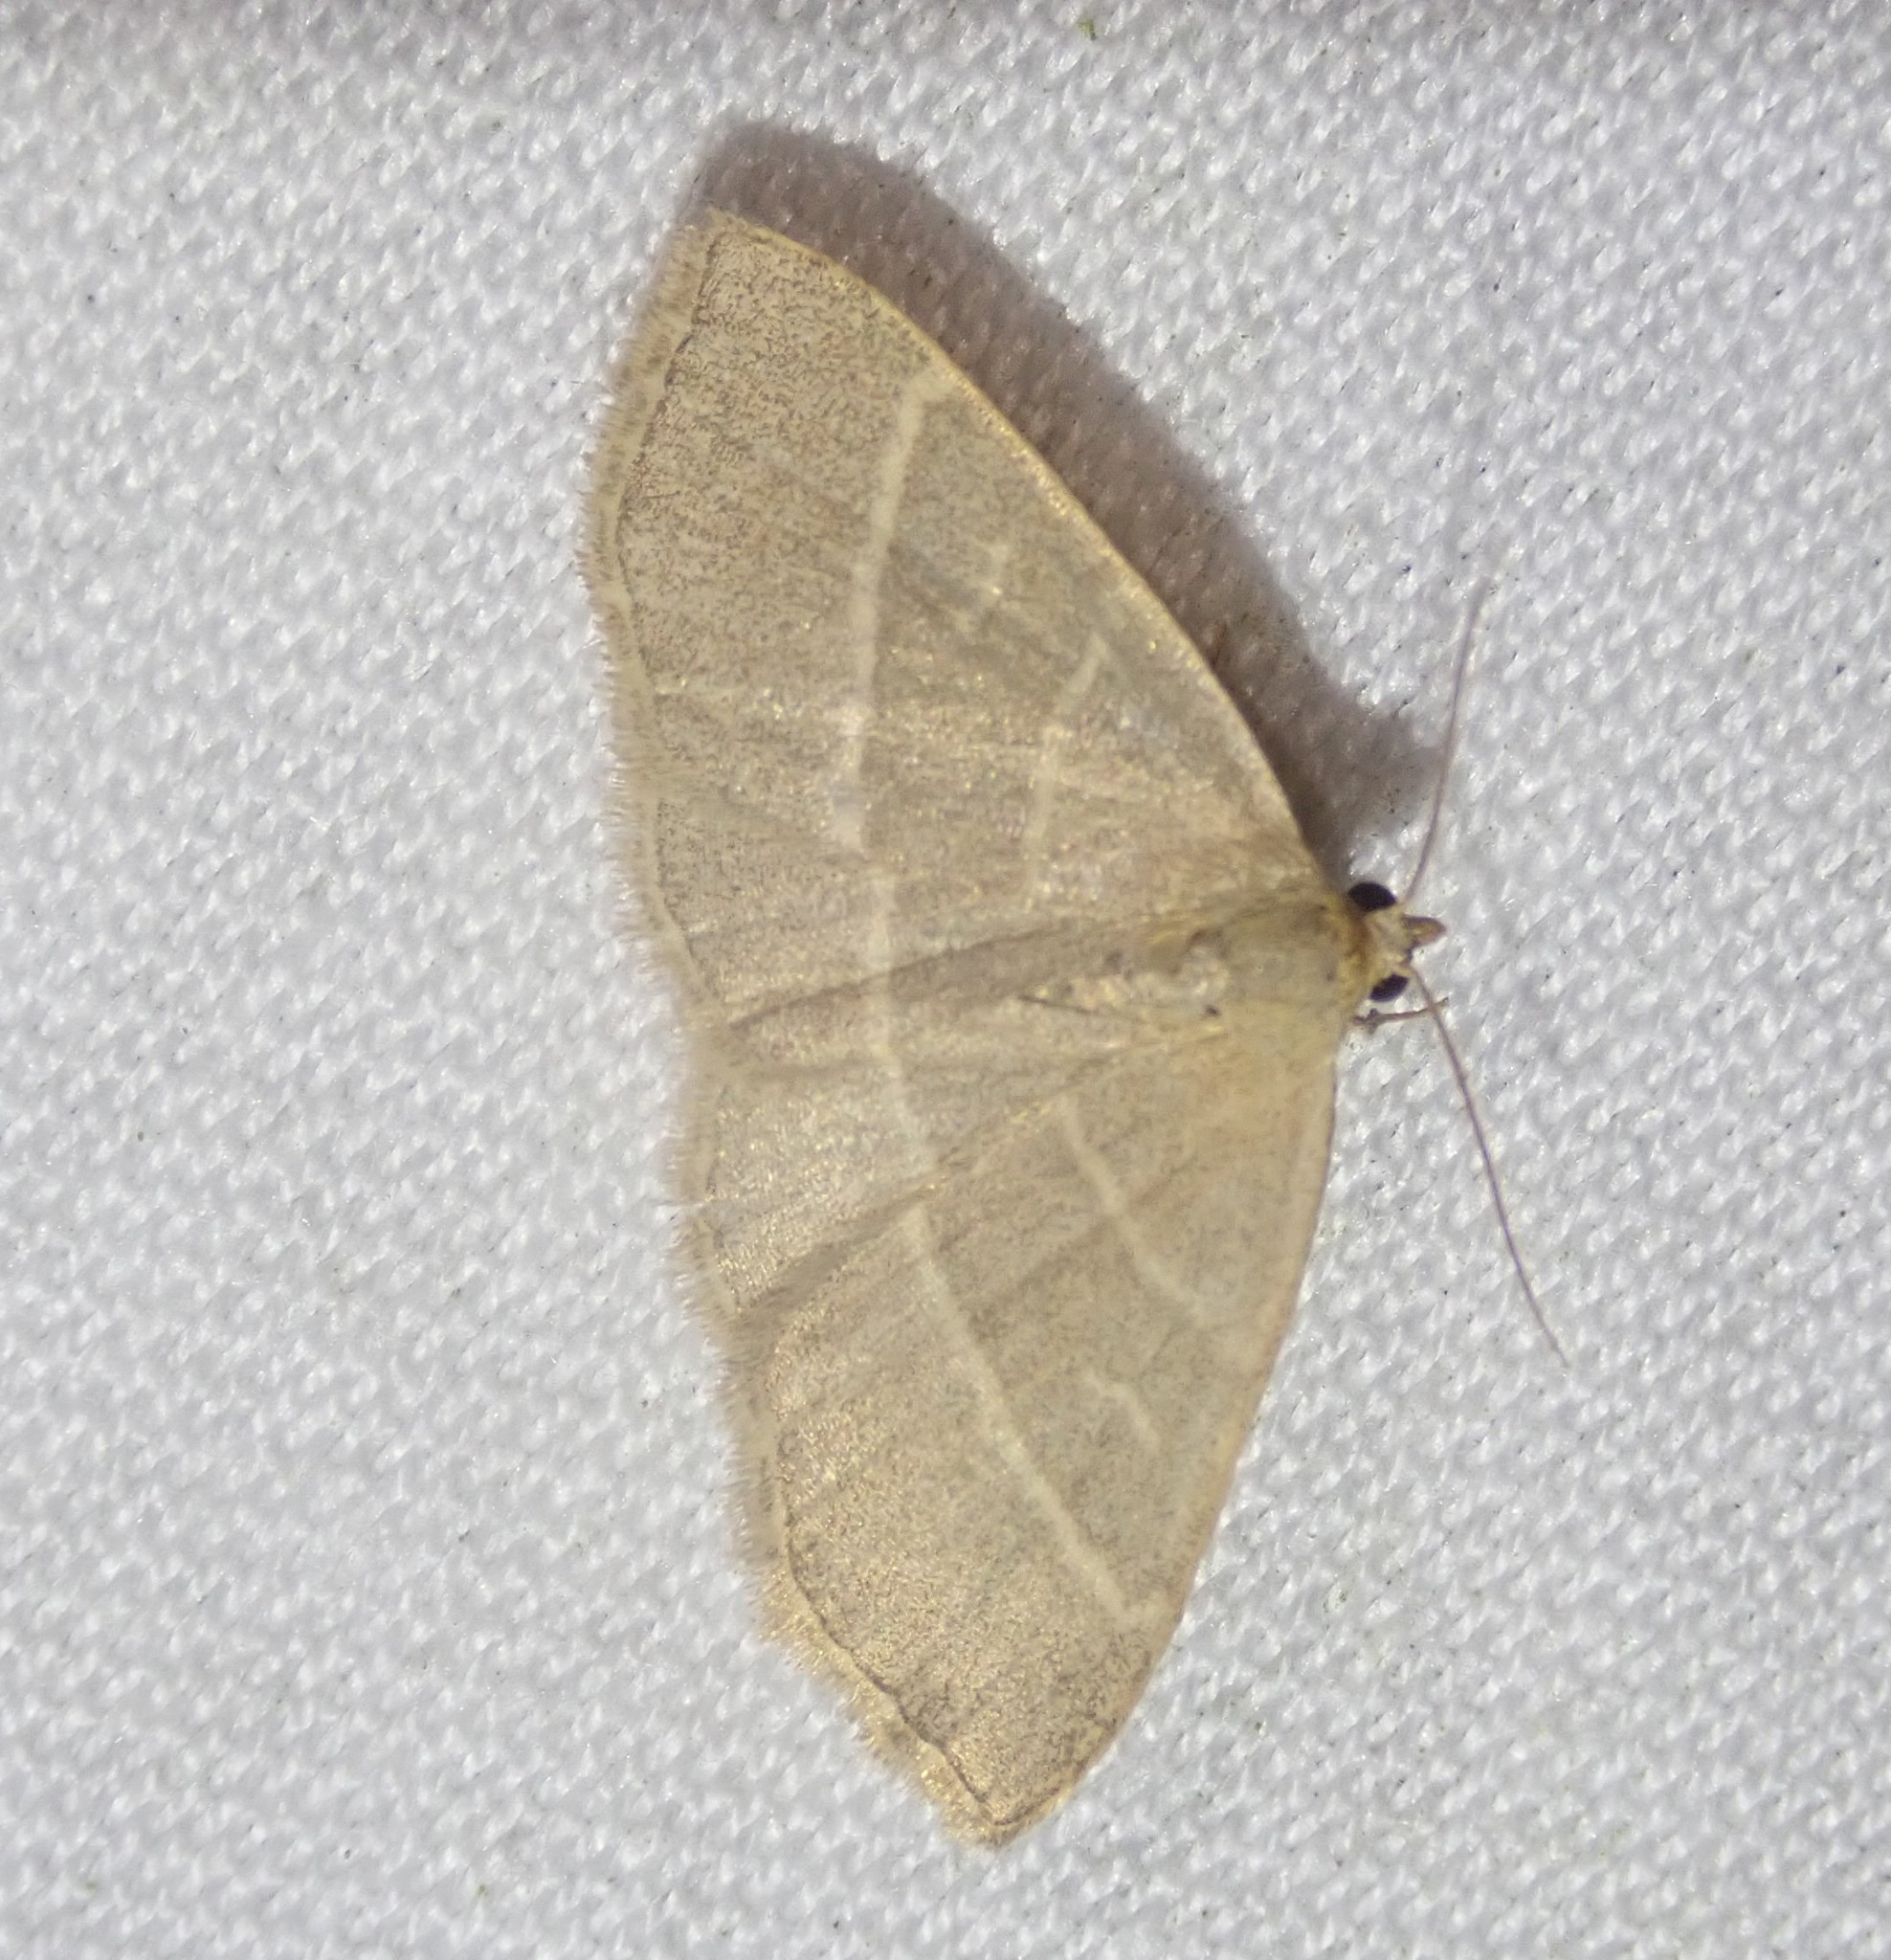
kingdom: Animalia
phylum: Arthropoda
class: Insecta
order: Lepidoptera
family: Erebidae
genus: Trisateles
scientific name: Trisateles emortualis
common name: Olive crescent
